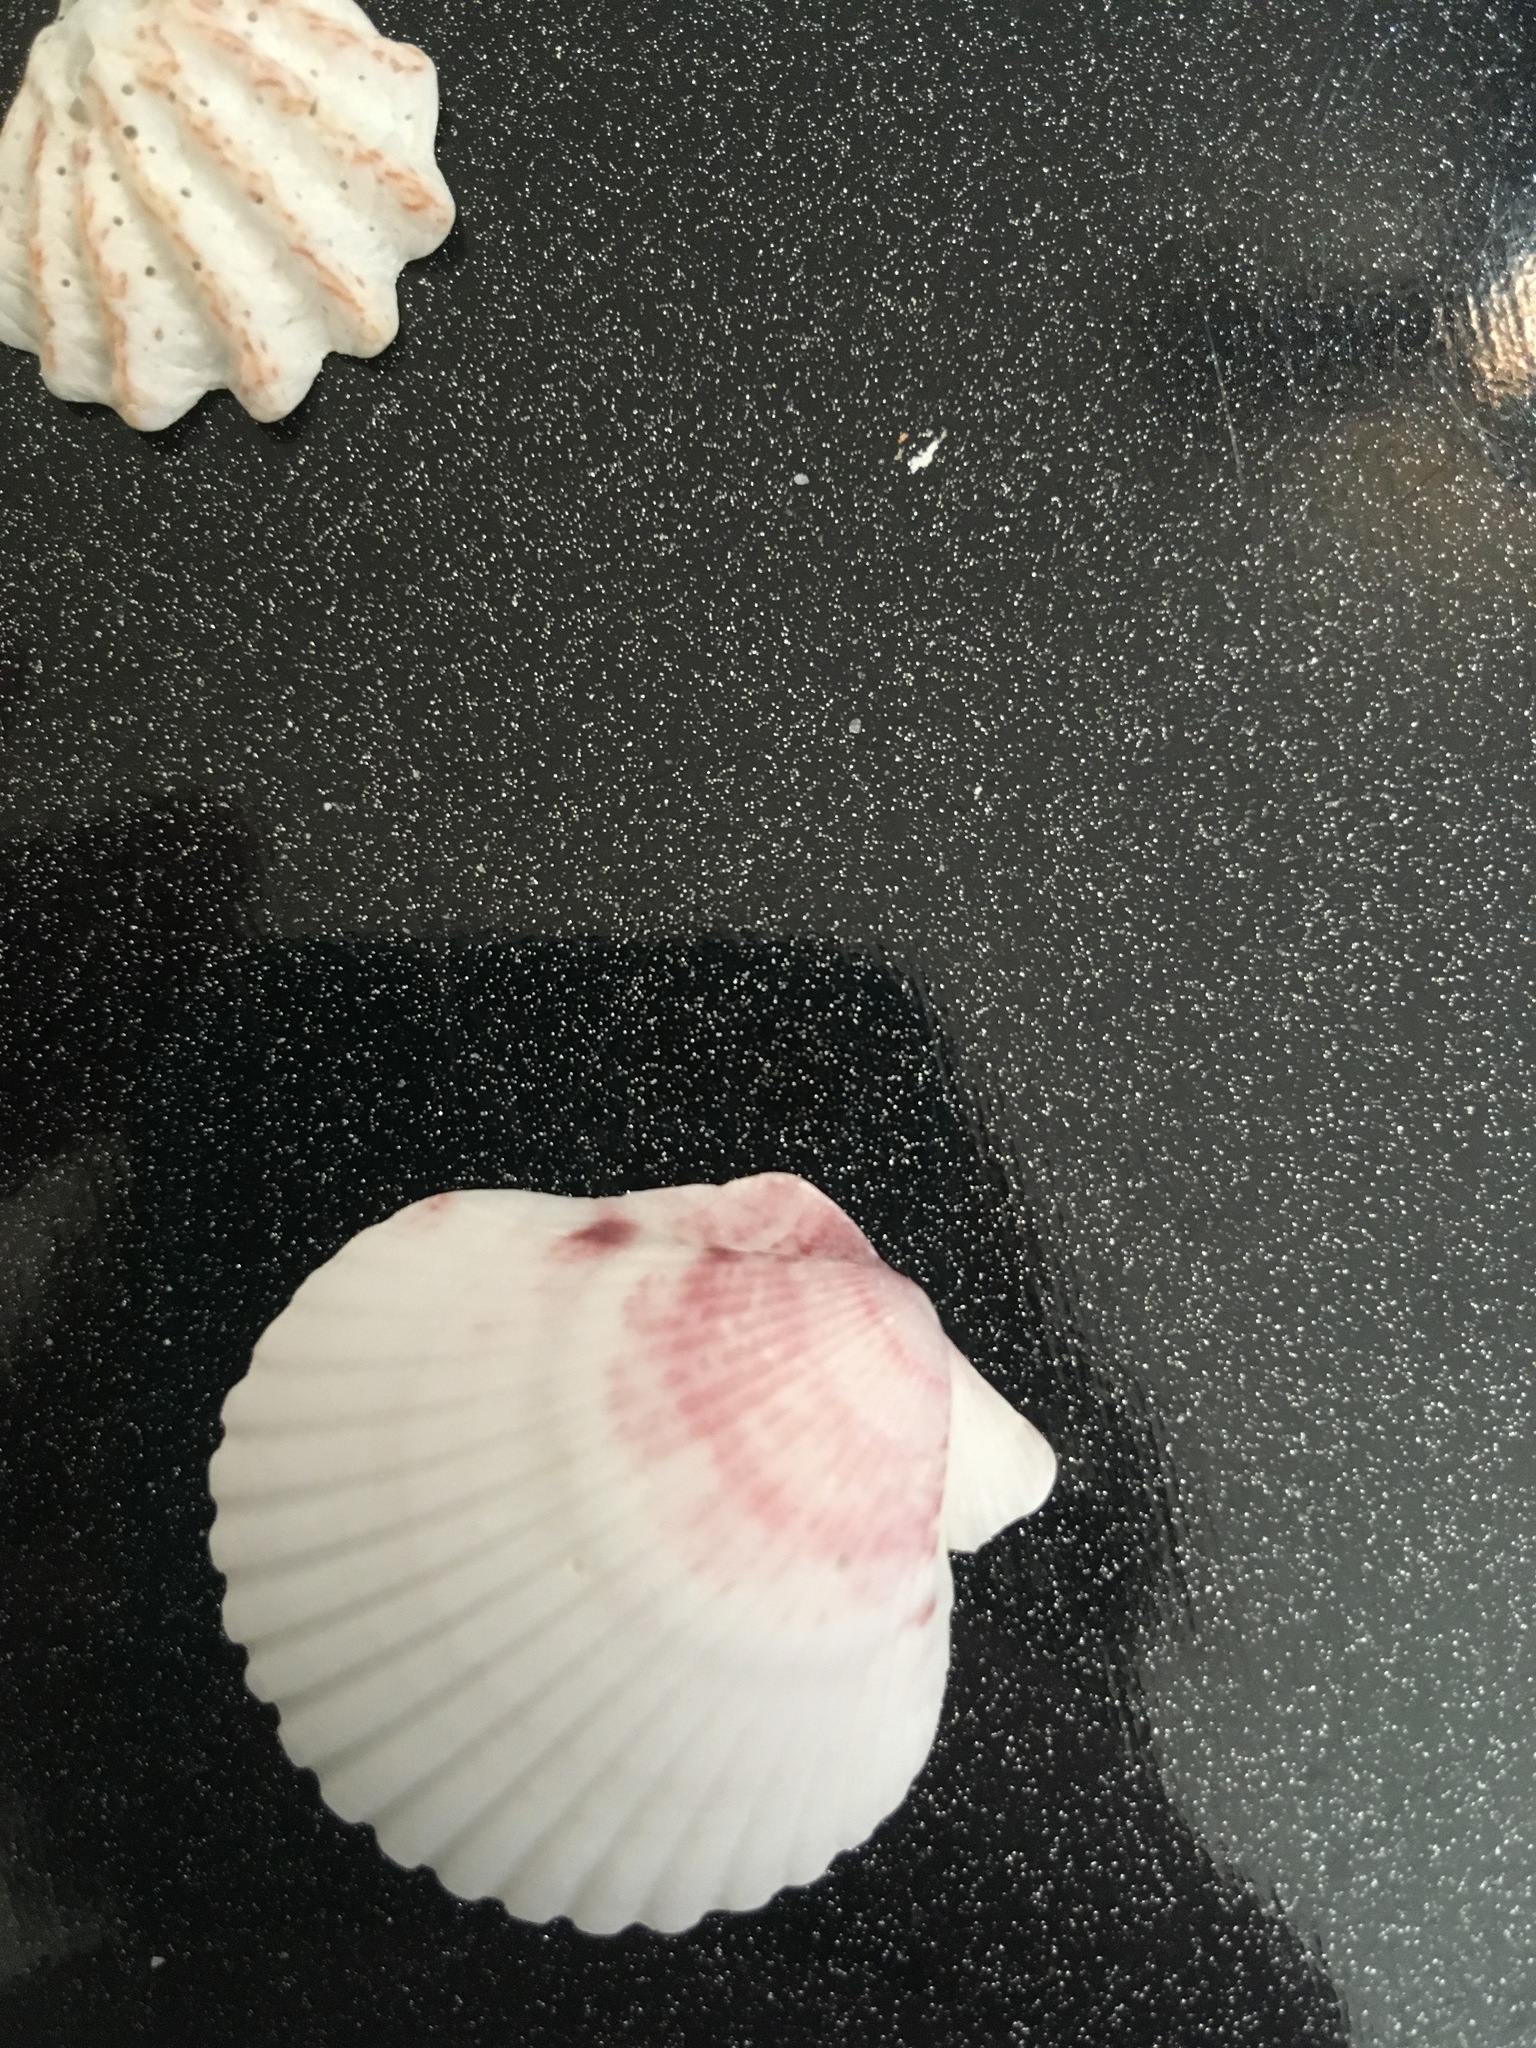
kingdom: Animalia
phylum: Mollusca
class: Bivalvia
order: Pectinida
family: Pectinidae
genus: Argopecten
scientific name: Argopecten gibbus
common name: Atlantic calico scallop
